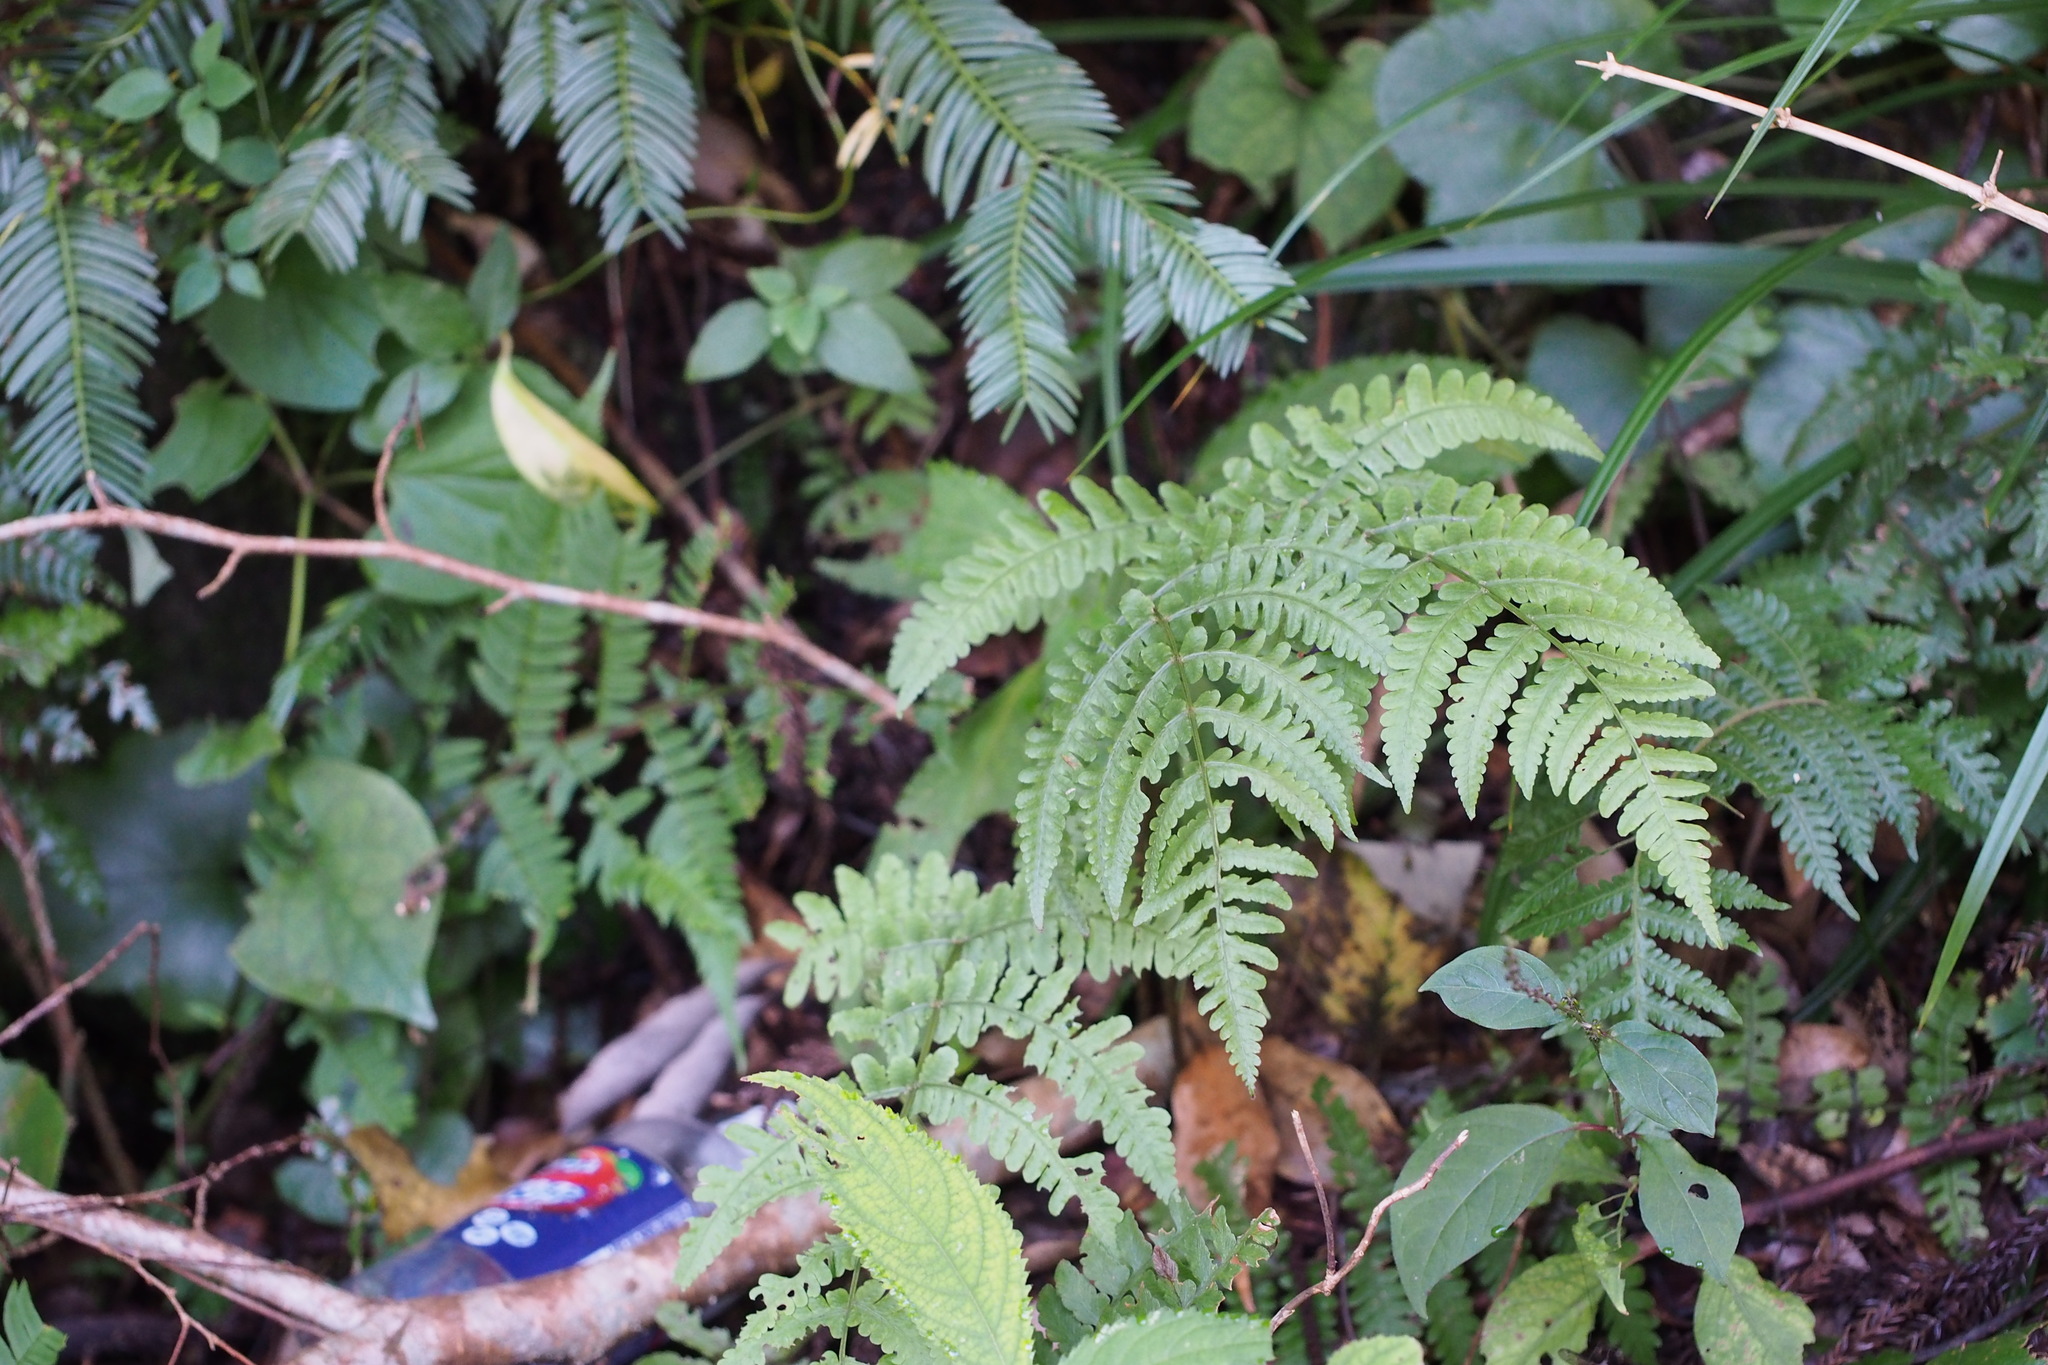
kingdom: Plantae
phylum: Tracheophyta
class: Polypodiopsida
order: Polypodiales
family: Athyriaceae
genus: Cornopteris
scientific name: Cornopteris decurrentialata
